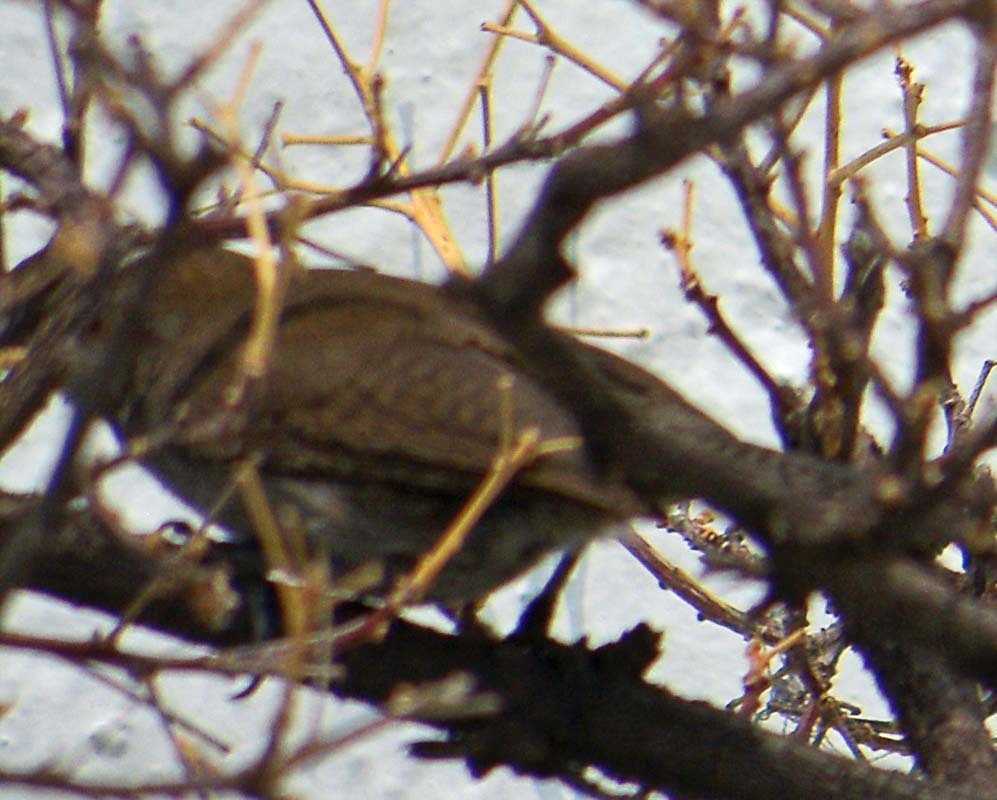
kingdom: Animalia
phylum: Chordata
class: Aves
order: Passeriformes
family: Troglodytidae
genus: Thryomanes
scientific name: Thryomanes bewickii
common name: Bewick's wren
